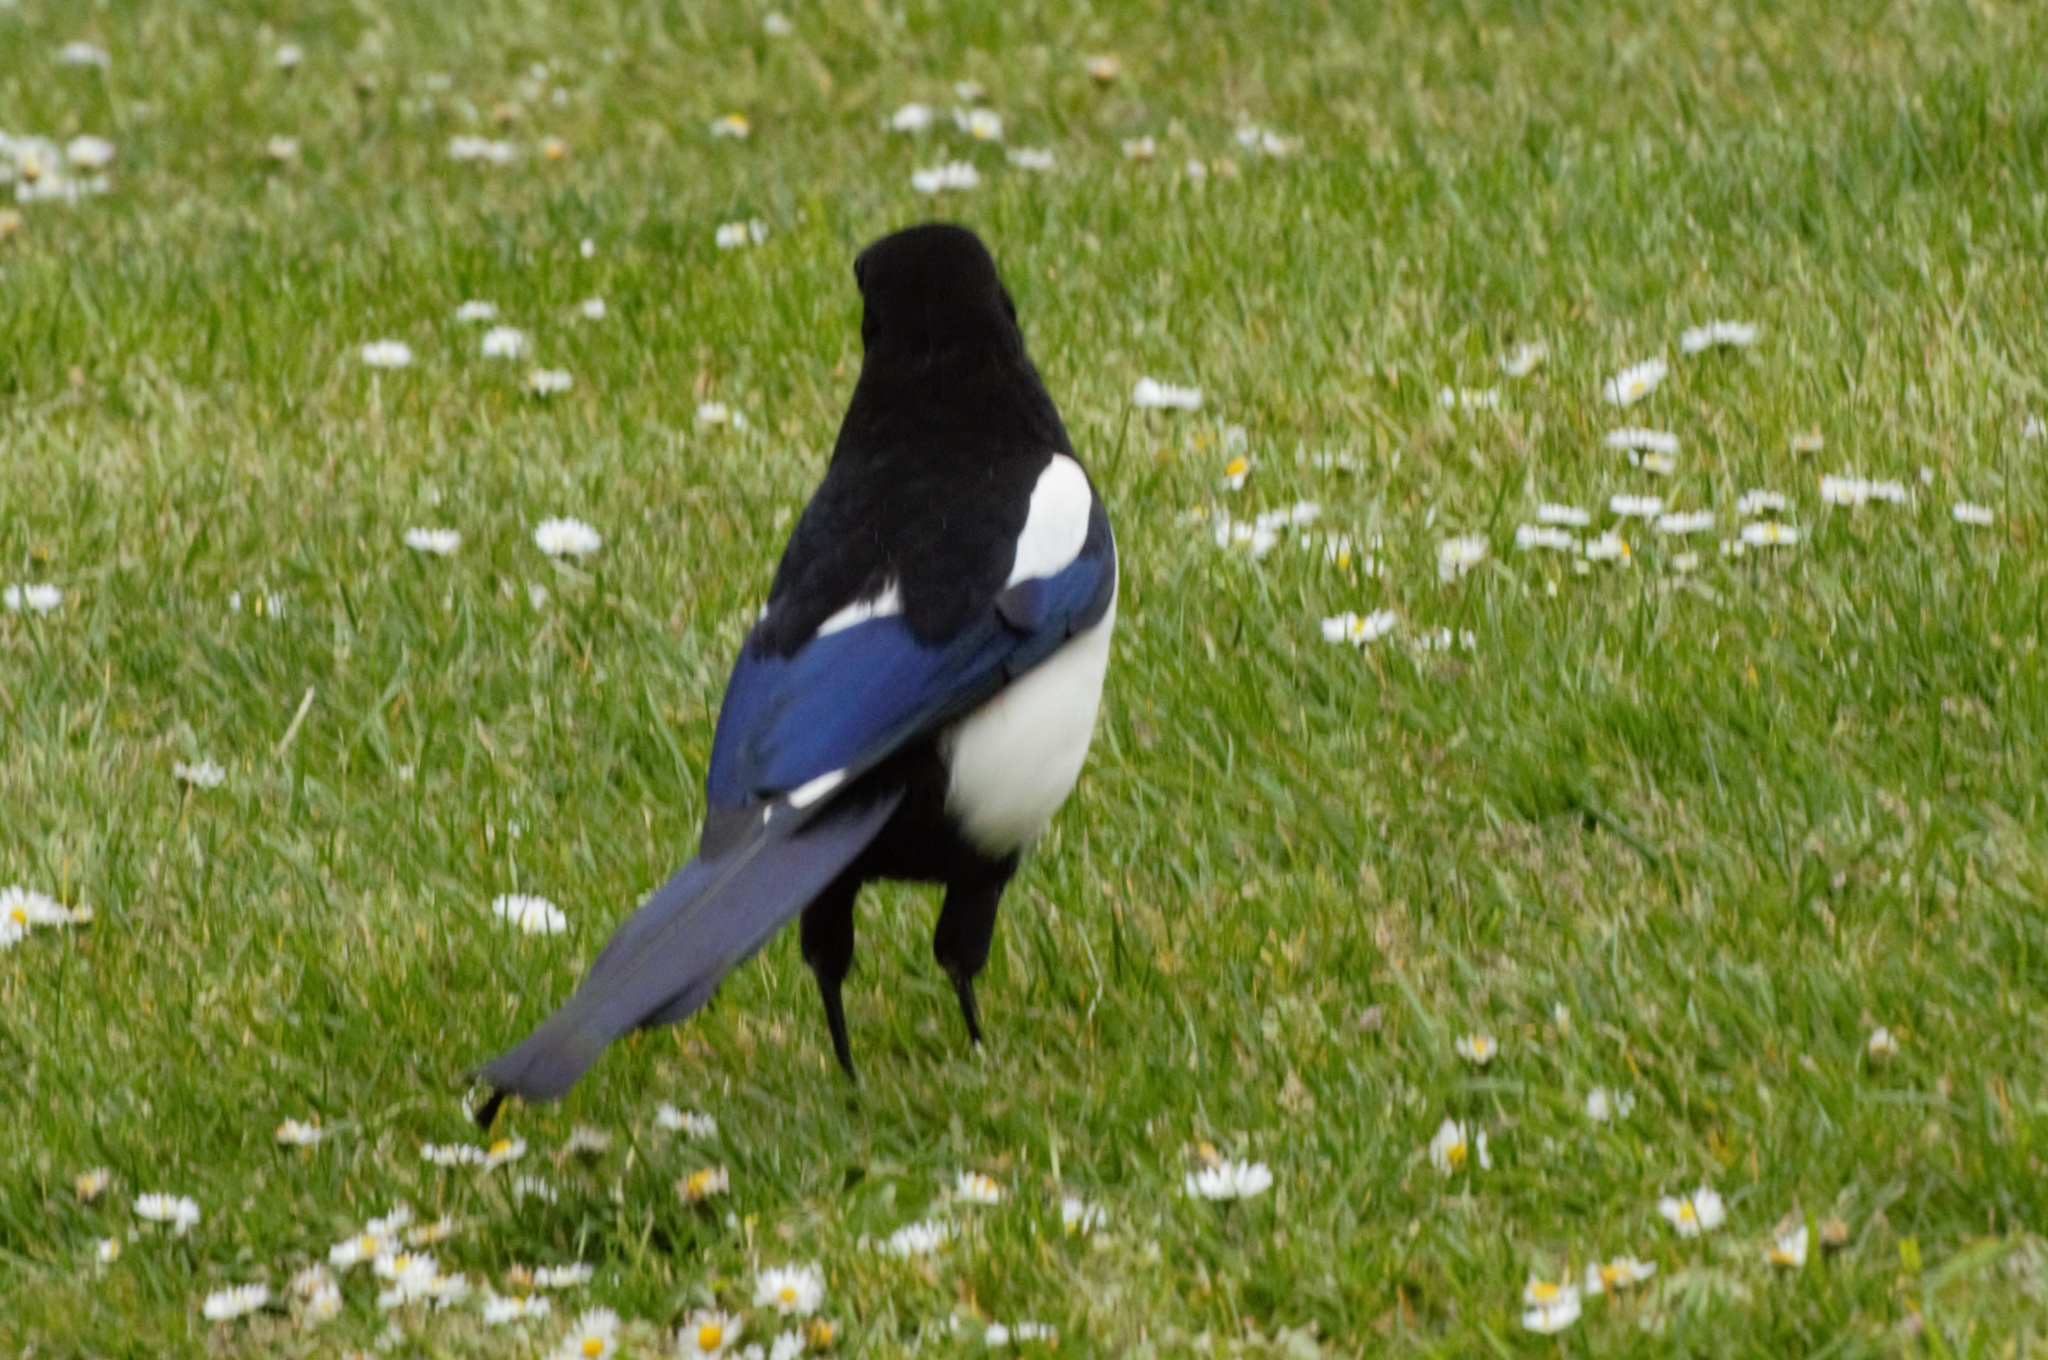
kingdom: Animalia
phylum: Chordata
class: Aves
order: Passeriformes
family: Corvidae
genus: Pica
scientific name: Pica pica
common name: Eurasian magpie
